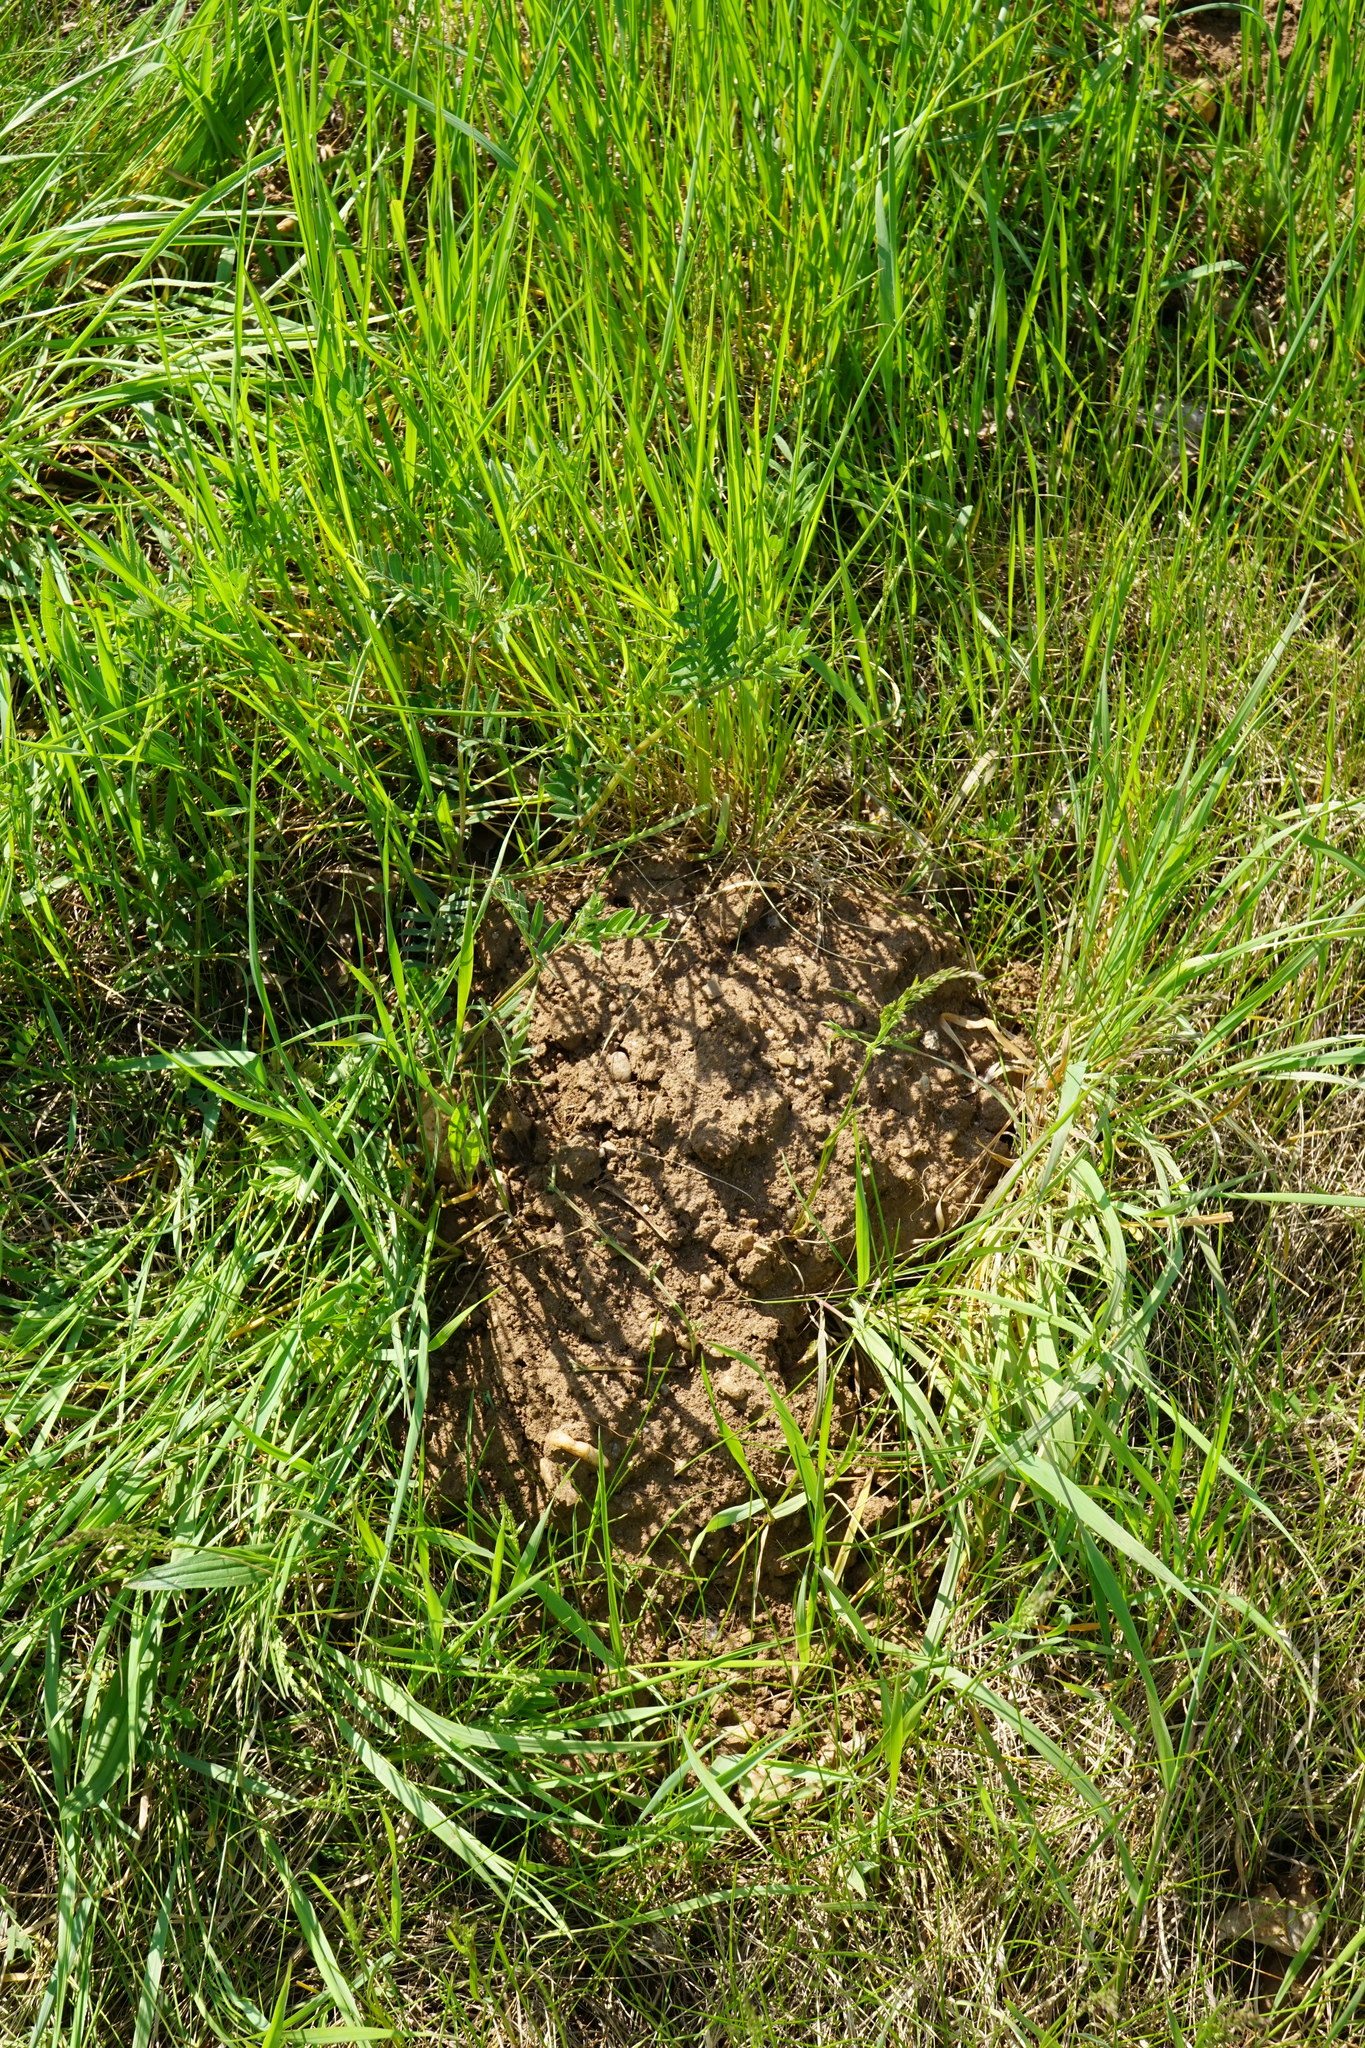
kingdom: Animalia
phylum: Chordata
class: Mammalia
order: Soricomorpha
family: Talpidae
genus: Talpa
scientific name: Talpa europaea
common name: European mole
